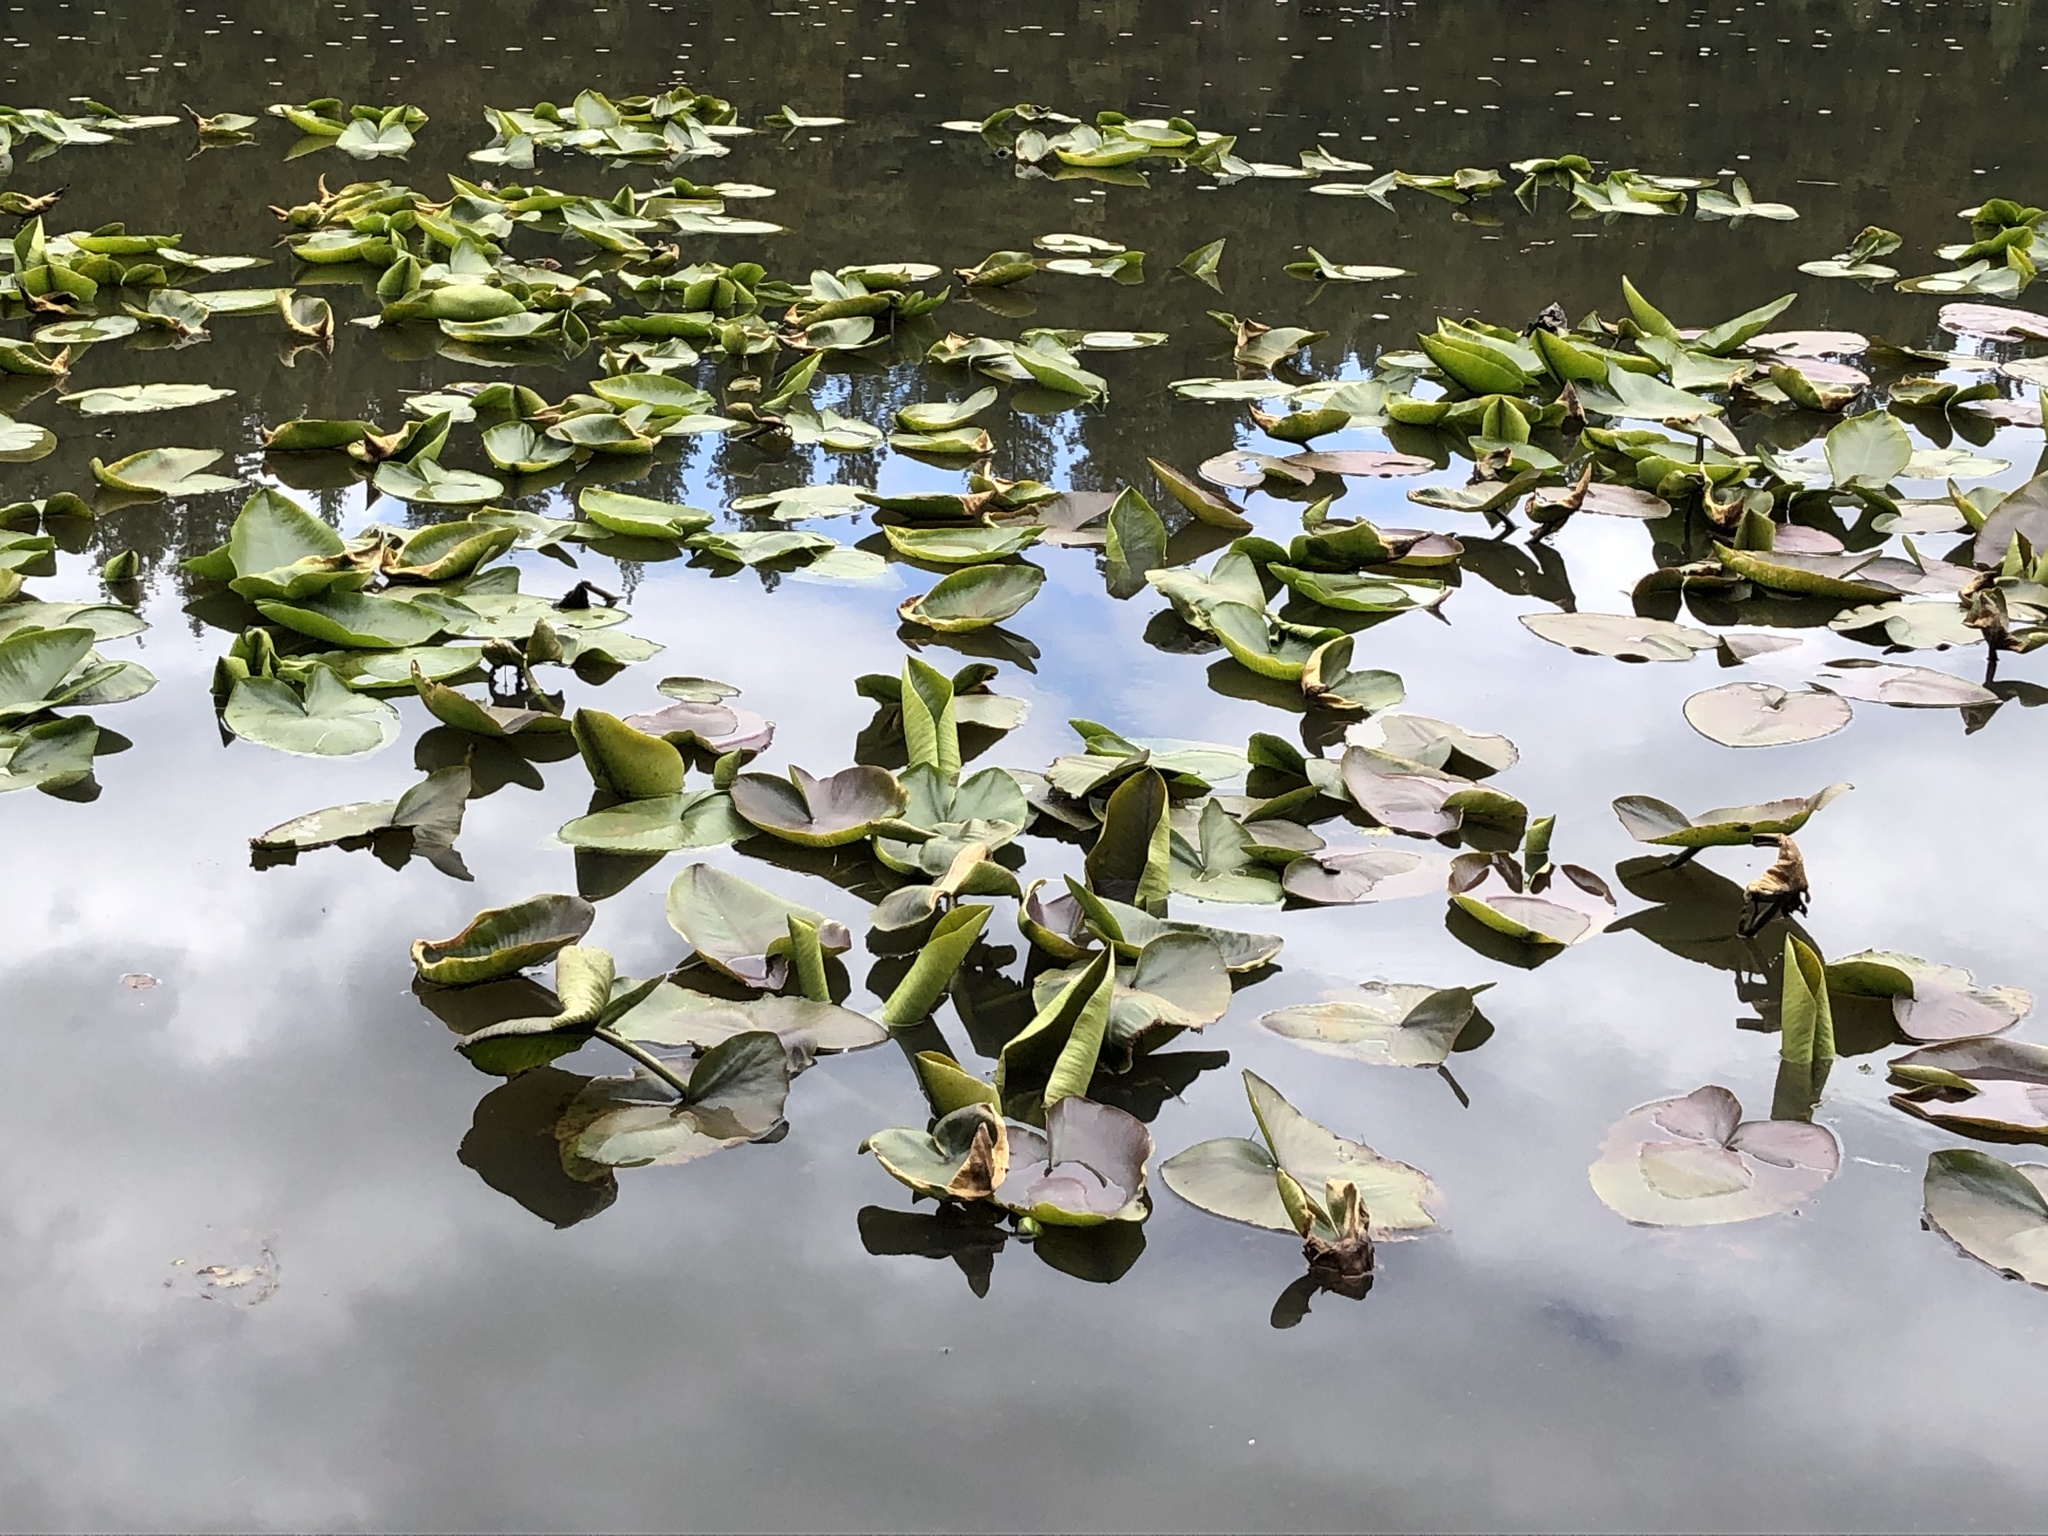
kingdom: Plantae
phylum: Tracheophyta
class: Magnoliopsida
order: Nymphaeales
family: Nymphaeaceae
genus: Nuphar
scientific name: Nuphar polysepala
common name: Rocky mountain cow-lily
